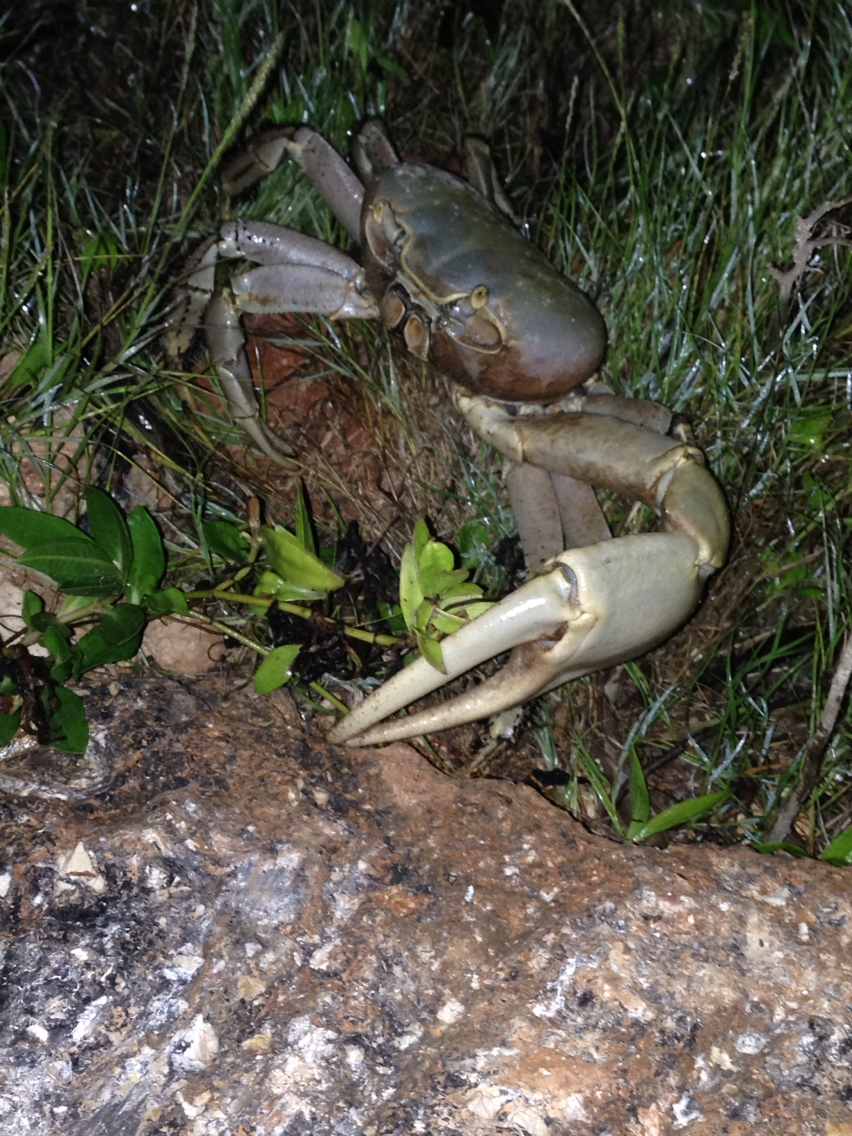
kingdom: Animalia
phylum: Arthropoda
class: Malacostraca
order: Decapoda
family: Gecarcinidae
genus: Cardisoma
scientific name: Cardisoma guanhumi
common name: Great land crab
